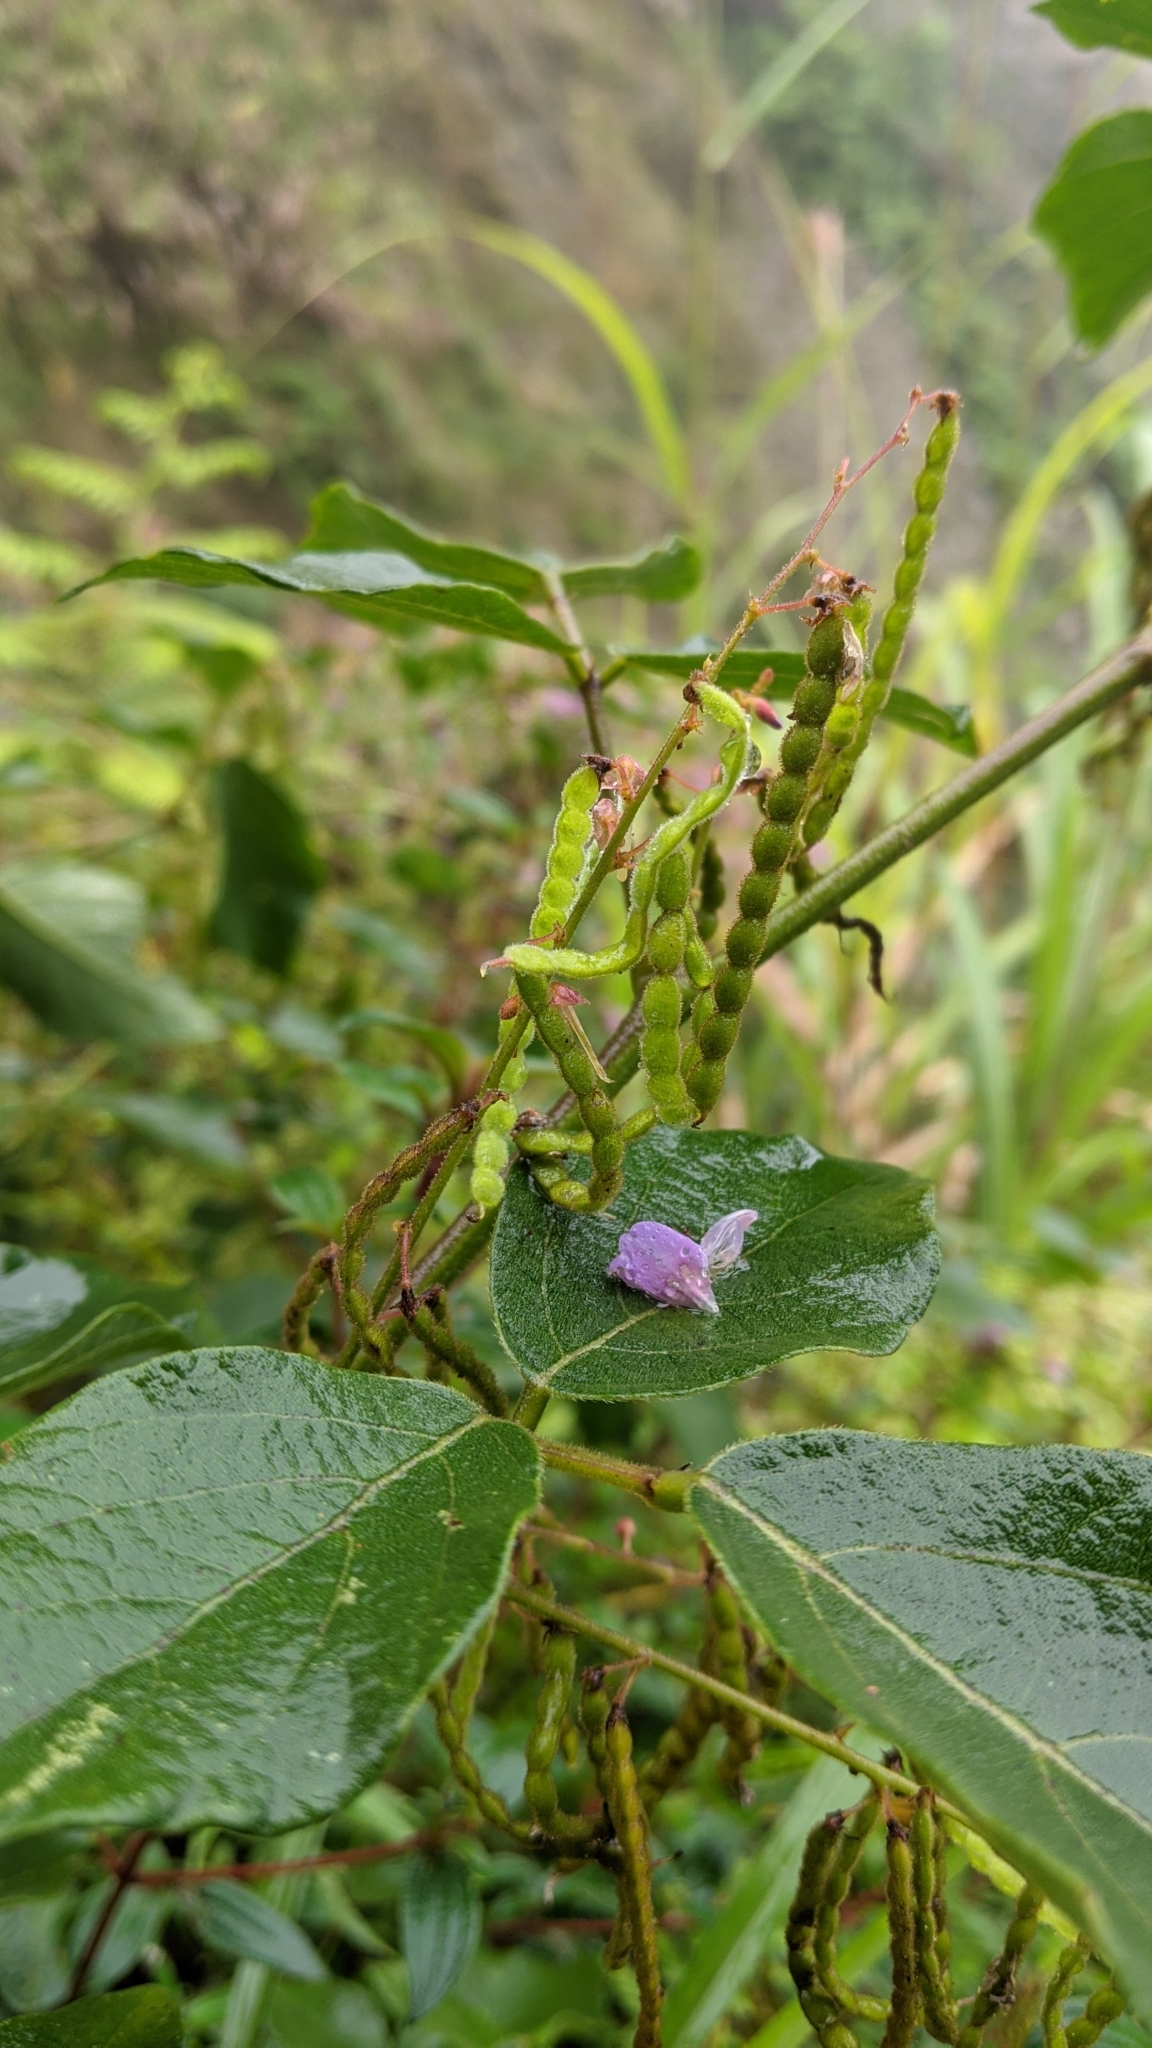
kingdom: Plantae
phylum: Tracheophyta
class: Magnoliopsida
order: Fabales
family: Fabaceae
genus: Puhuaea
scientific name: Puhuaea sequax
